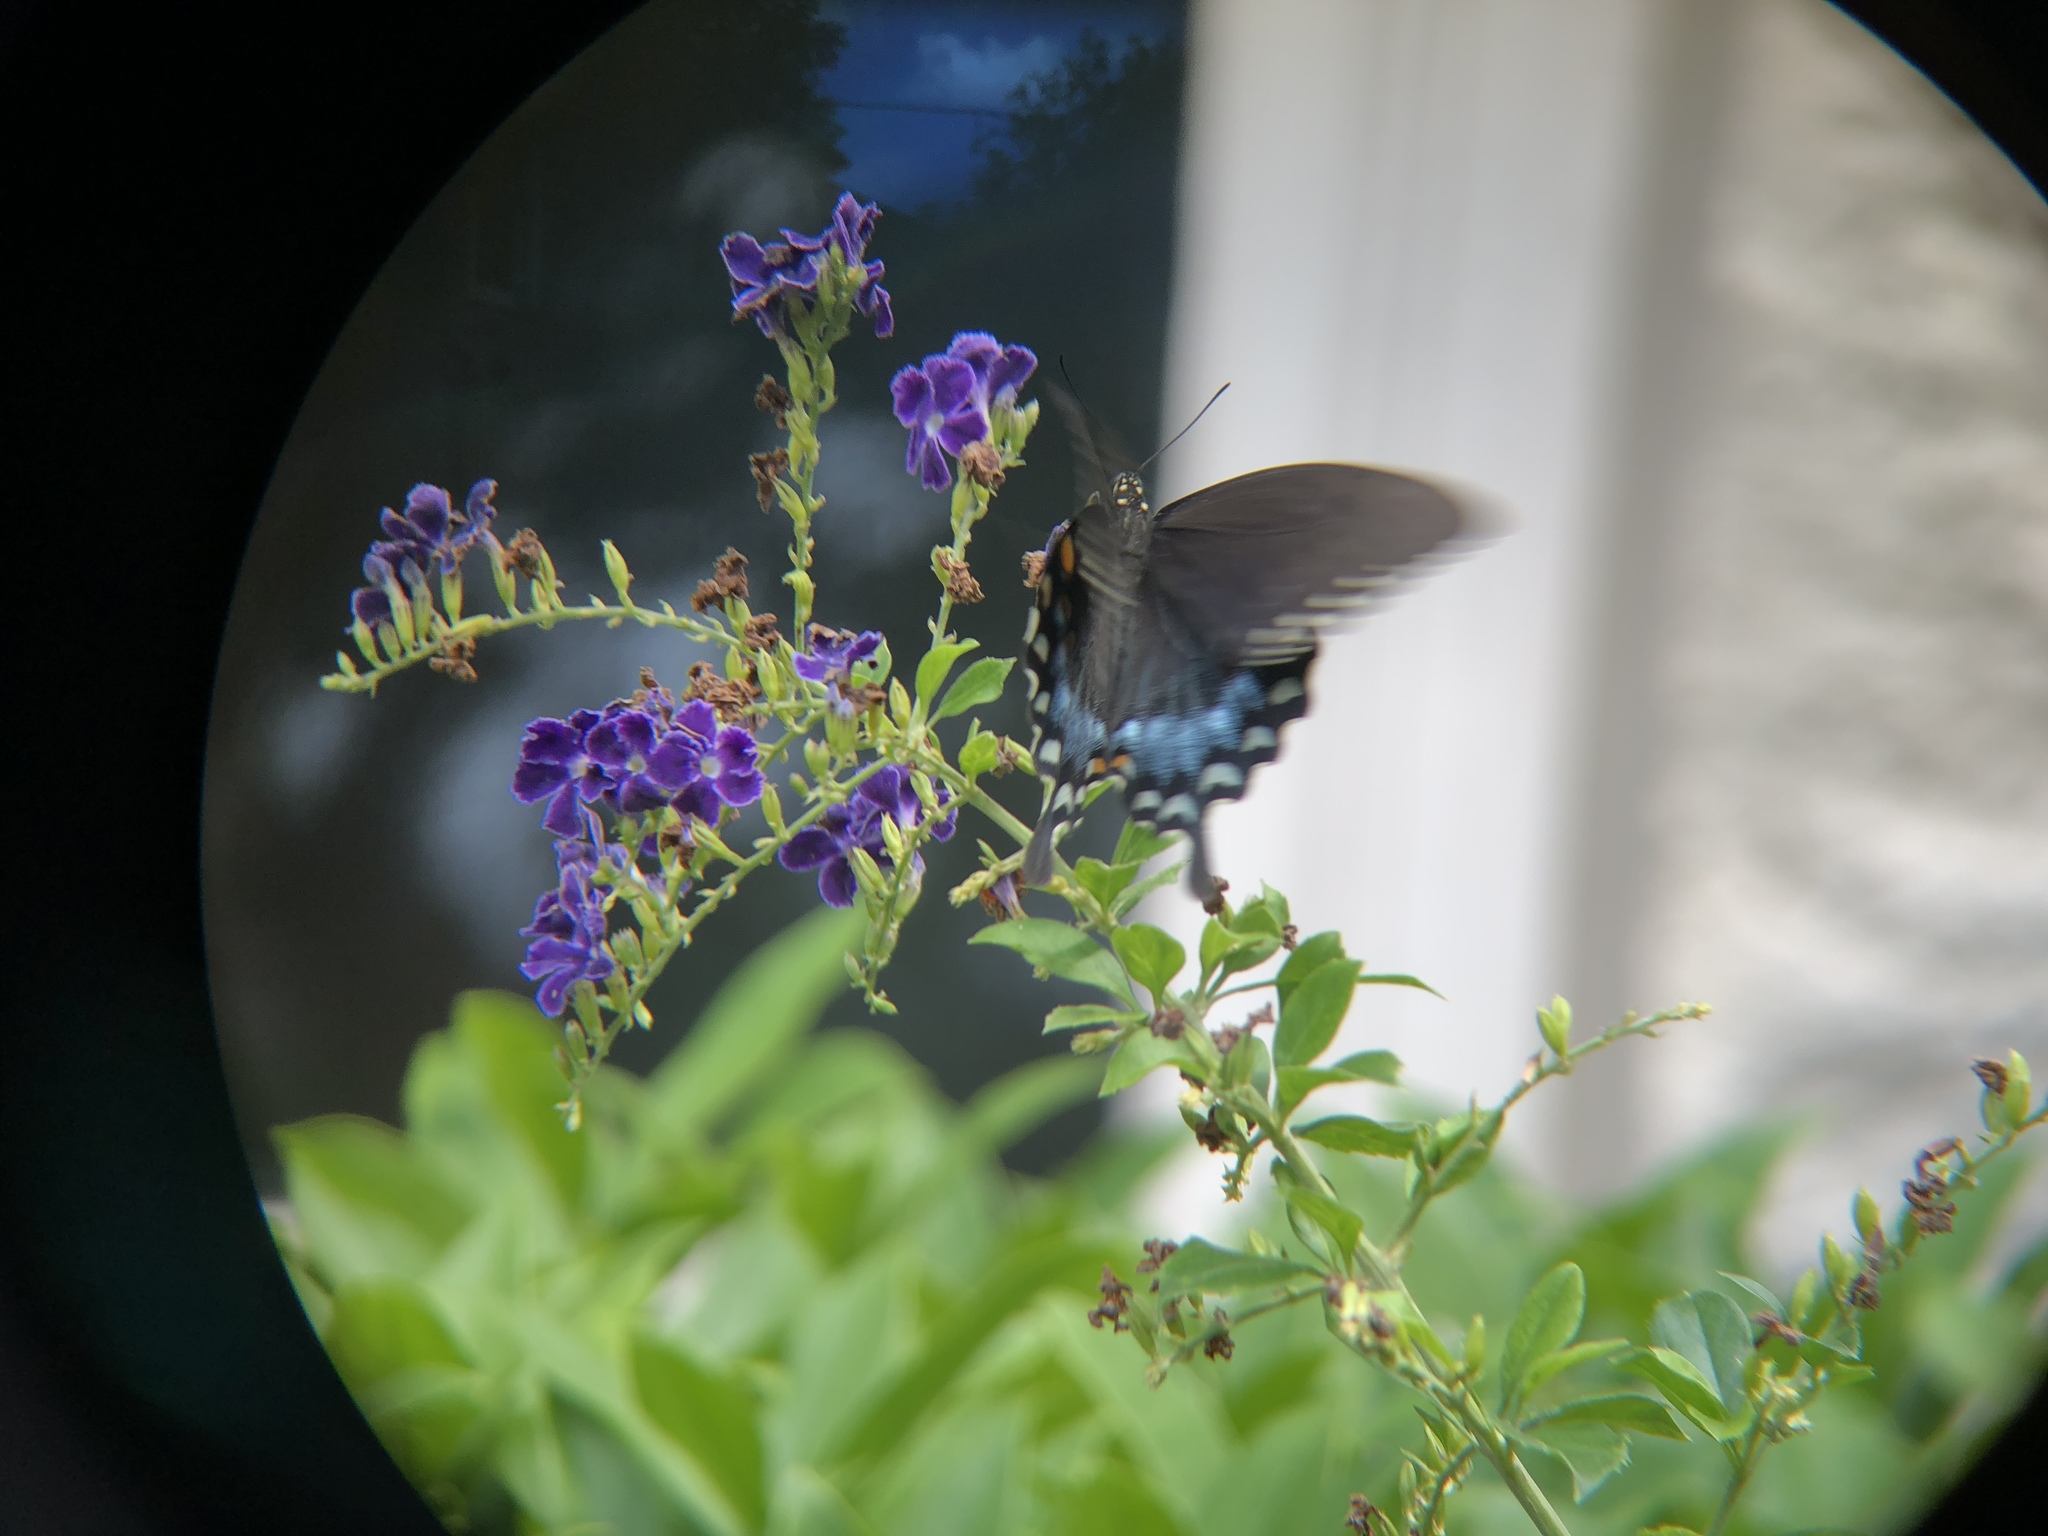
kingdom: Animalia
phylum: Arthropoda
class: Insecta
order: Lepidoptera
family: Papilionidae
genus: Papilio
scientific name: Papilio troilus
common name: Spicebush swallowtail
